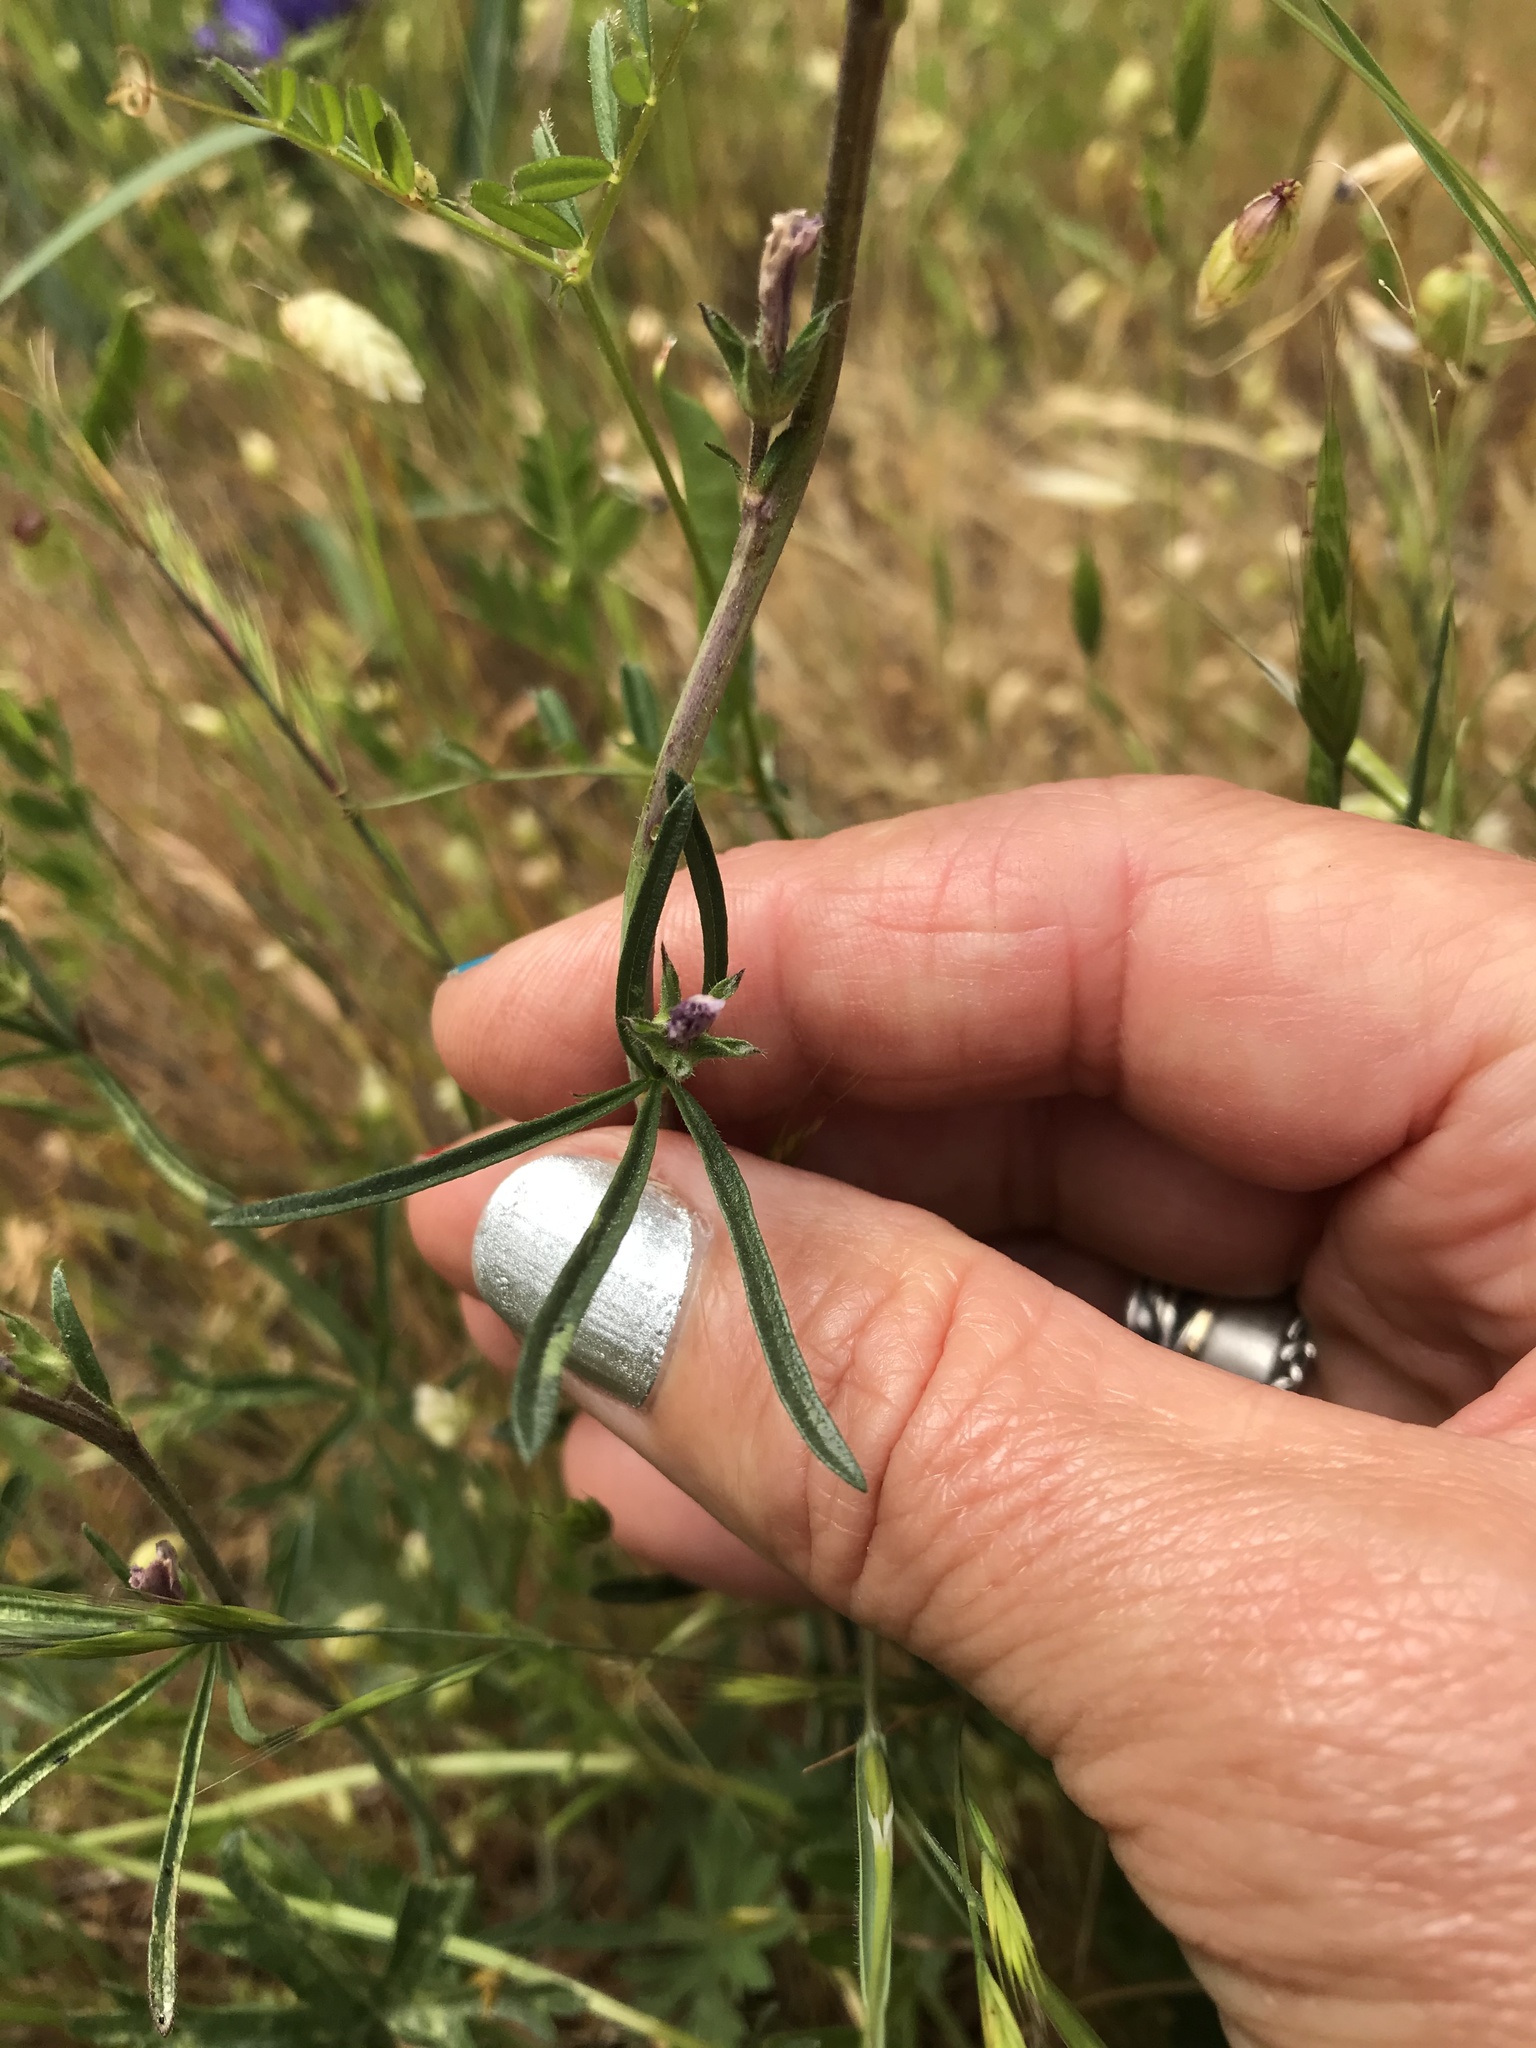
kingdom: Plantae
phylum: Tracheophyta
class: Magnoliopsida
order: Malvales
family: Malvaceae
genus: Sidalcea
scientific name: Sidalcea malviflora
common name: Greek mallow
